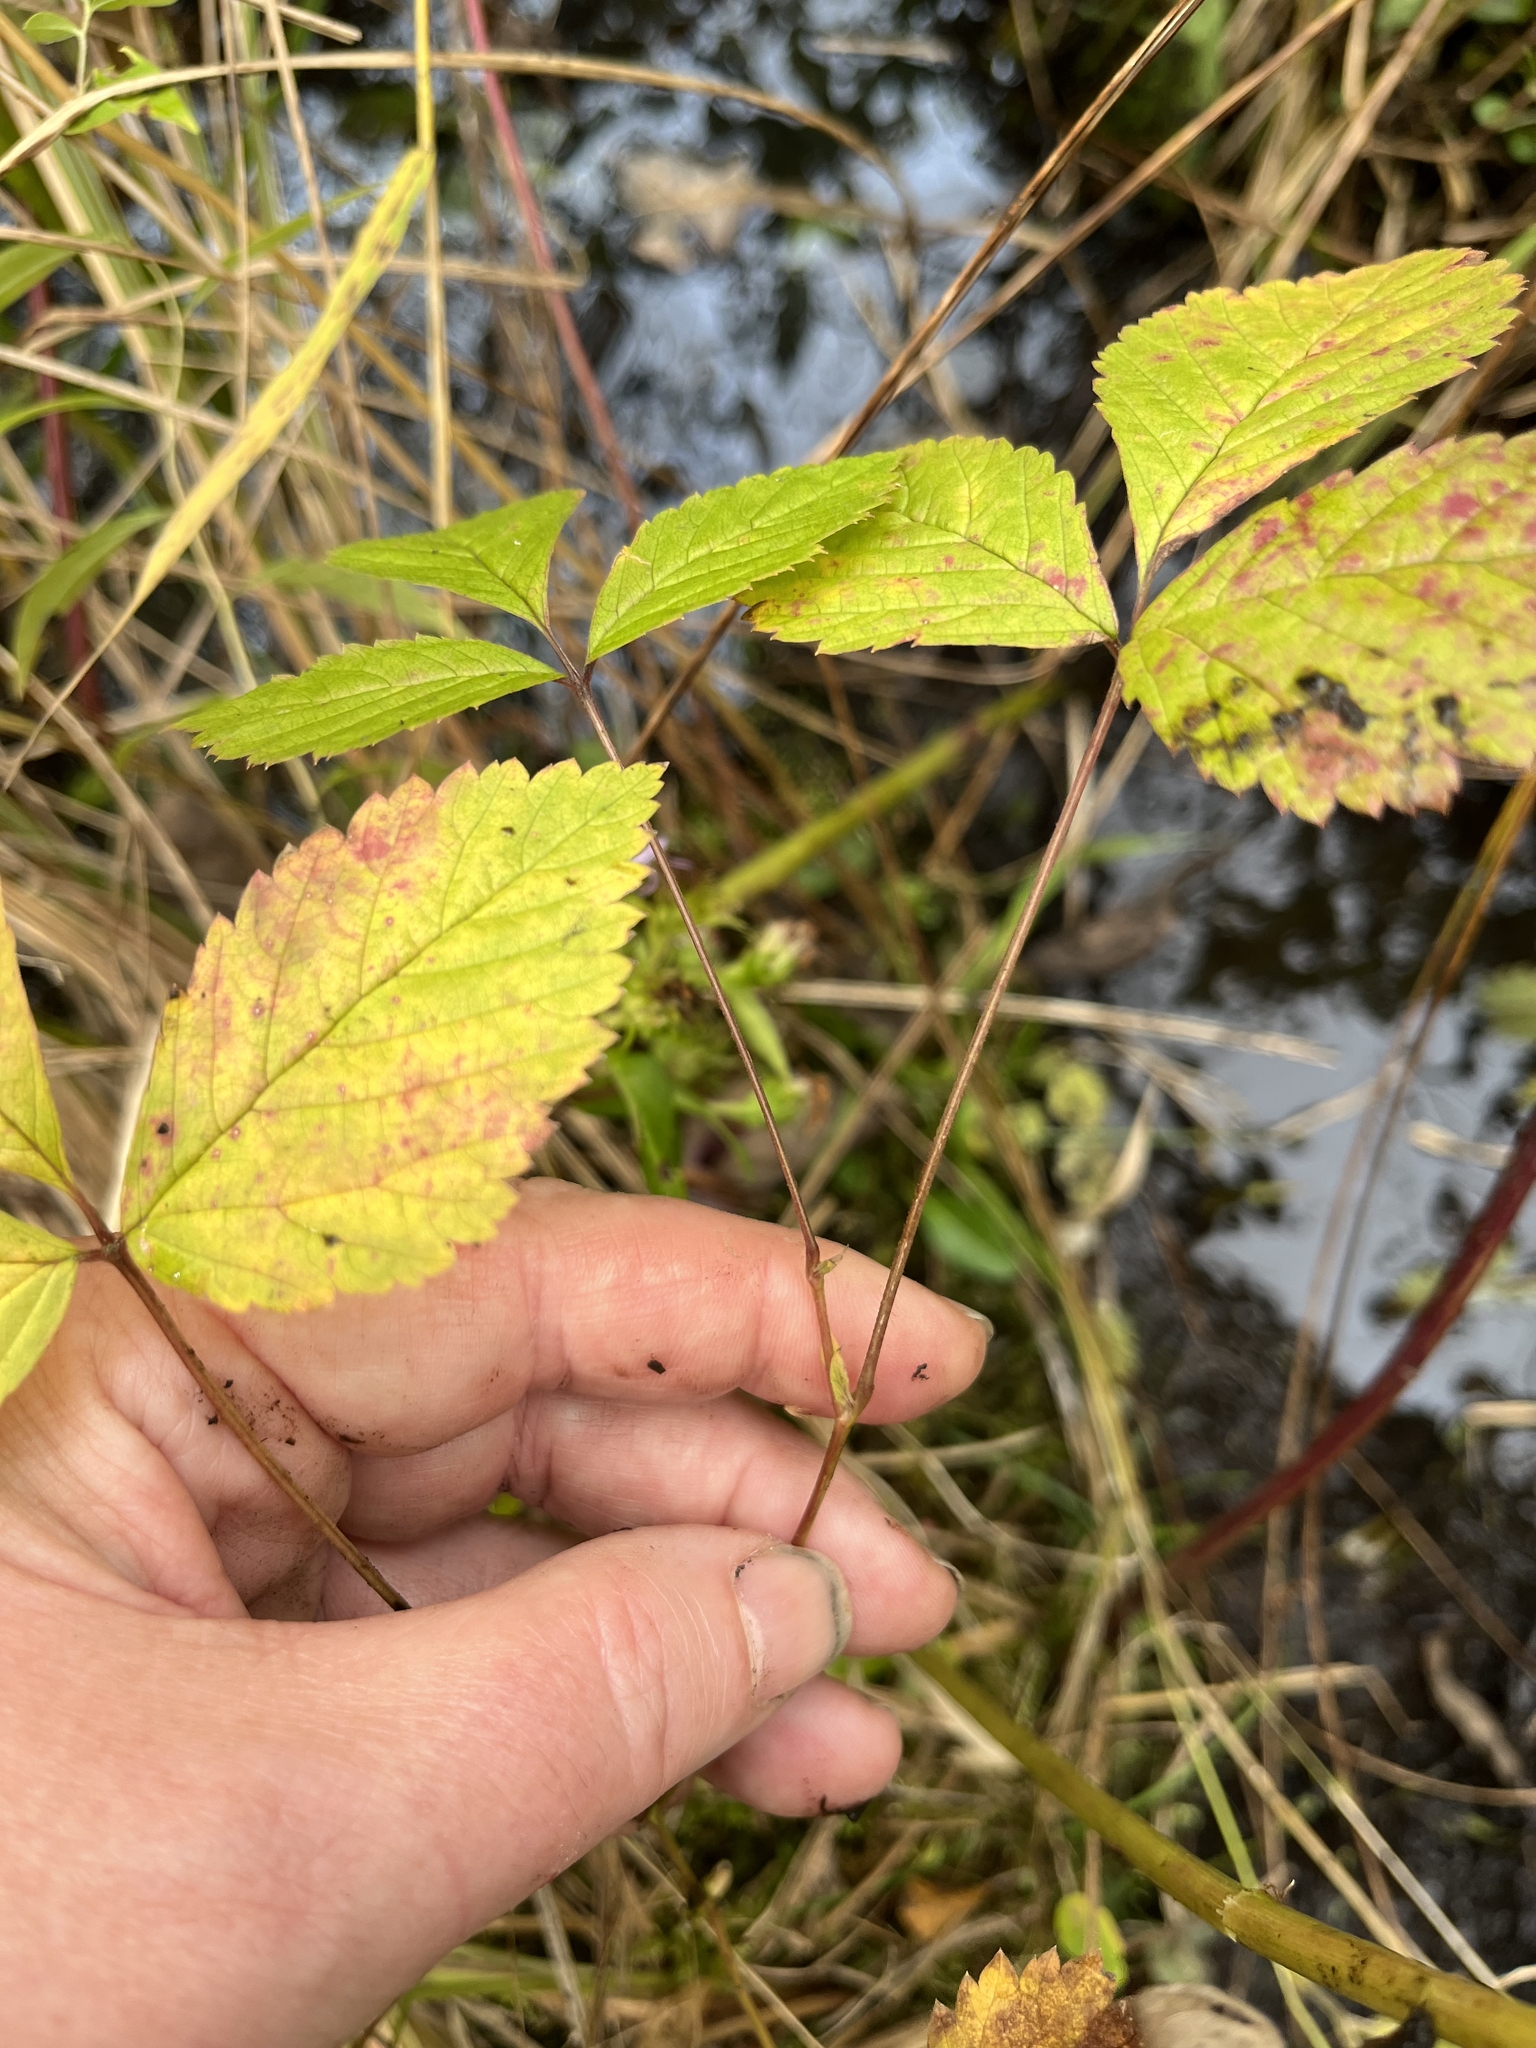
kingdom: Plantae
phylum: Tracheophyta
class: Magnoliopsida
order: Rosales
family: Rosaceae
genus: Rubus
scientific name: Rubus pubescens
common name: Dwarf raspberry
